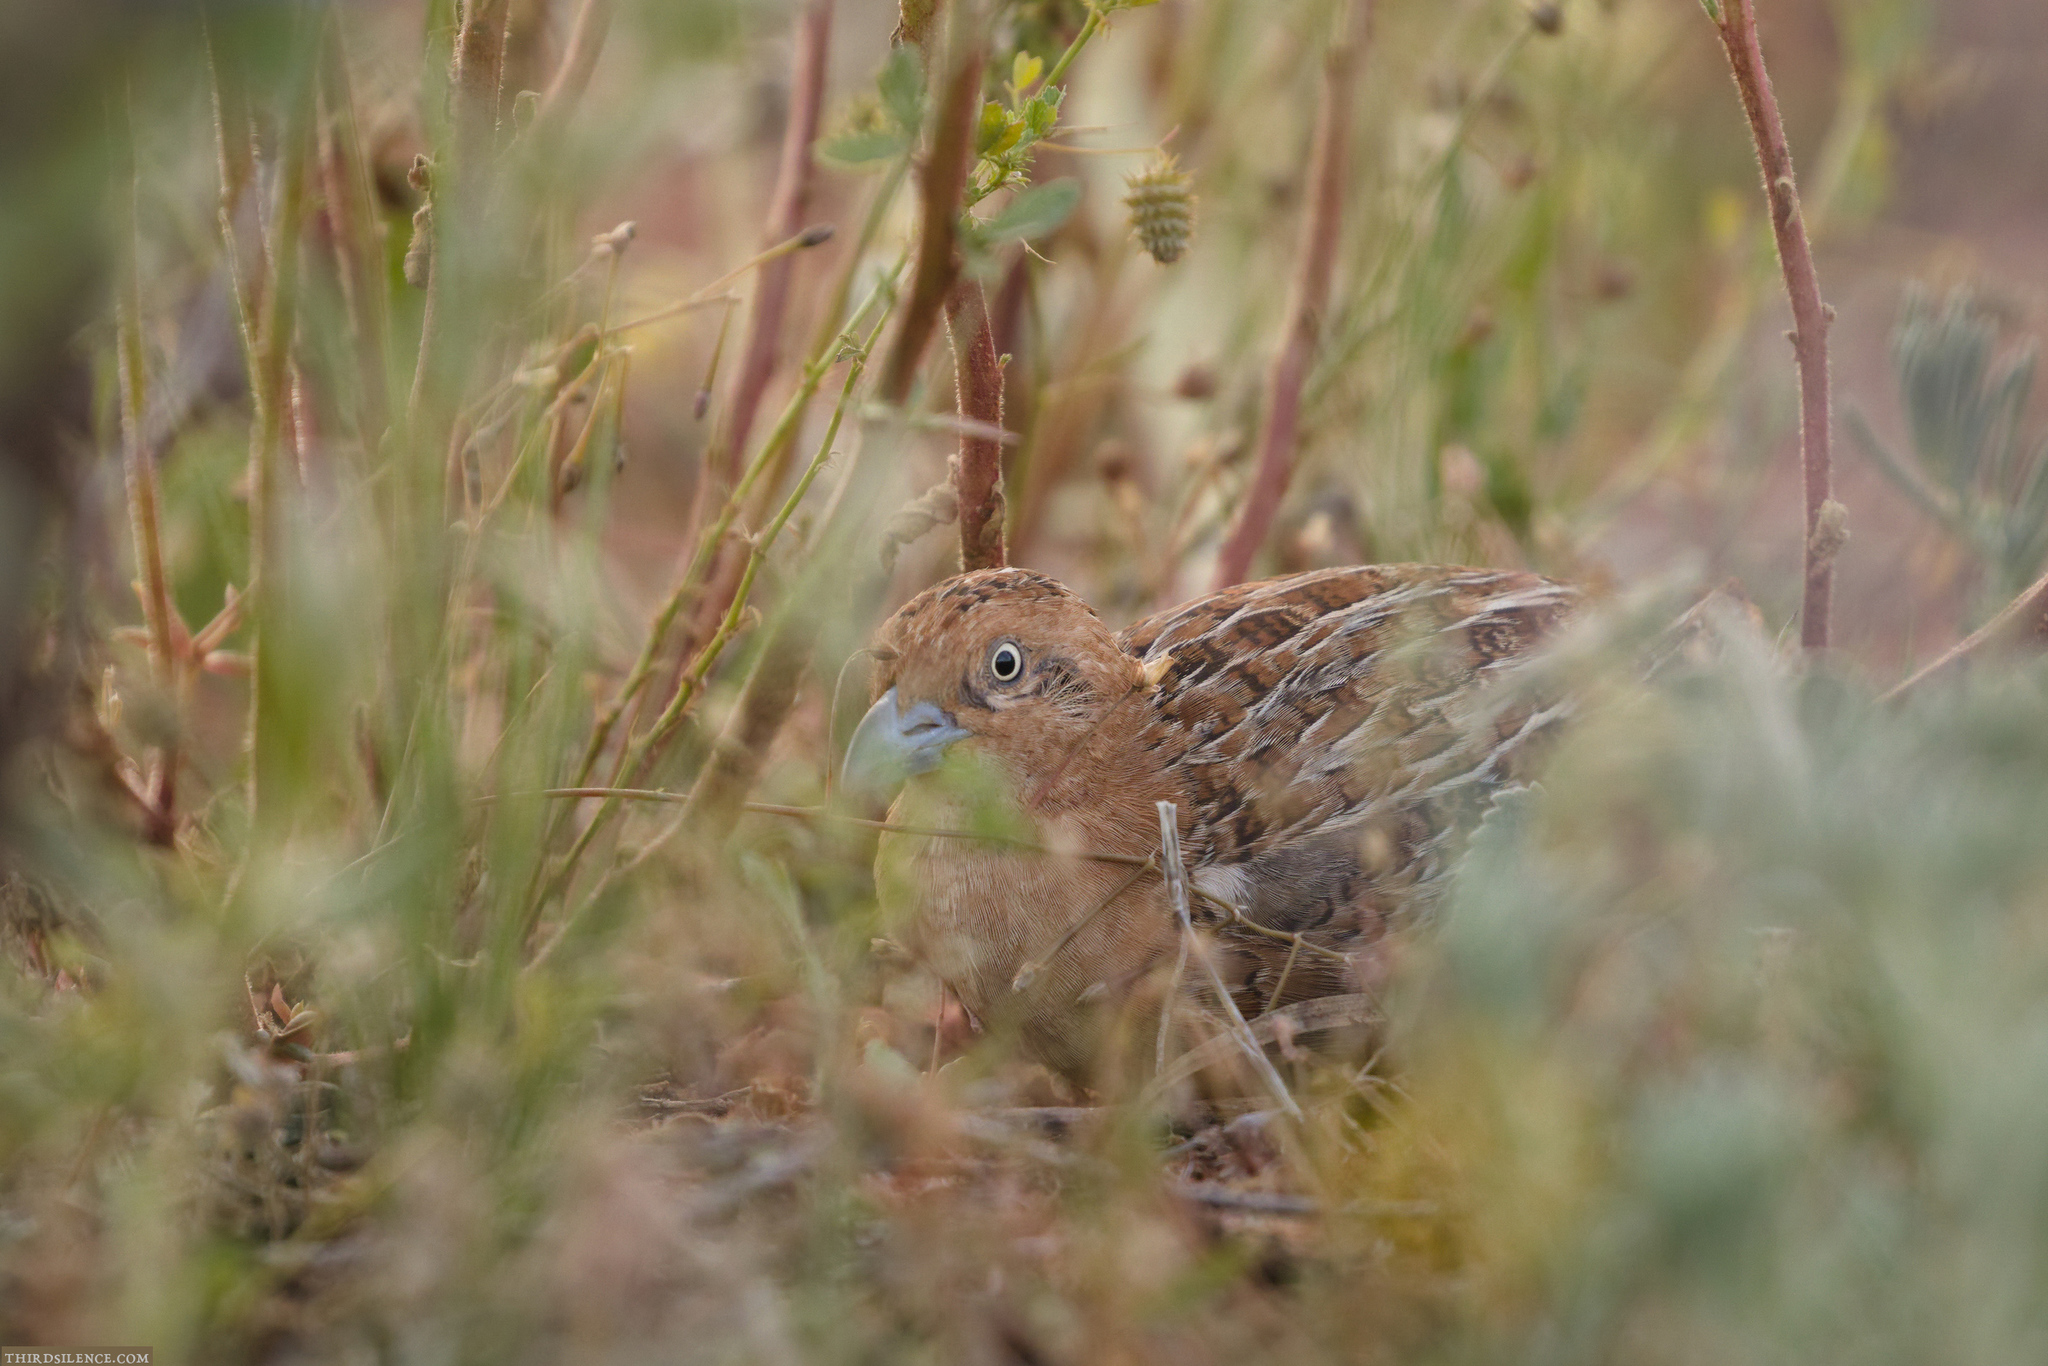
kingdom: Animalia
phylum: Chordata
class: Aves
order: Charadriiformes
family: Turnicidae
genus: Turnix
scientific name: Turnix velox
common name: Little buttonquail
